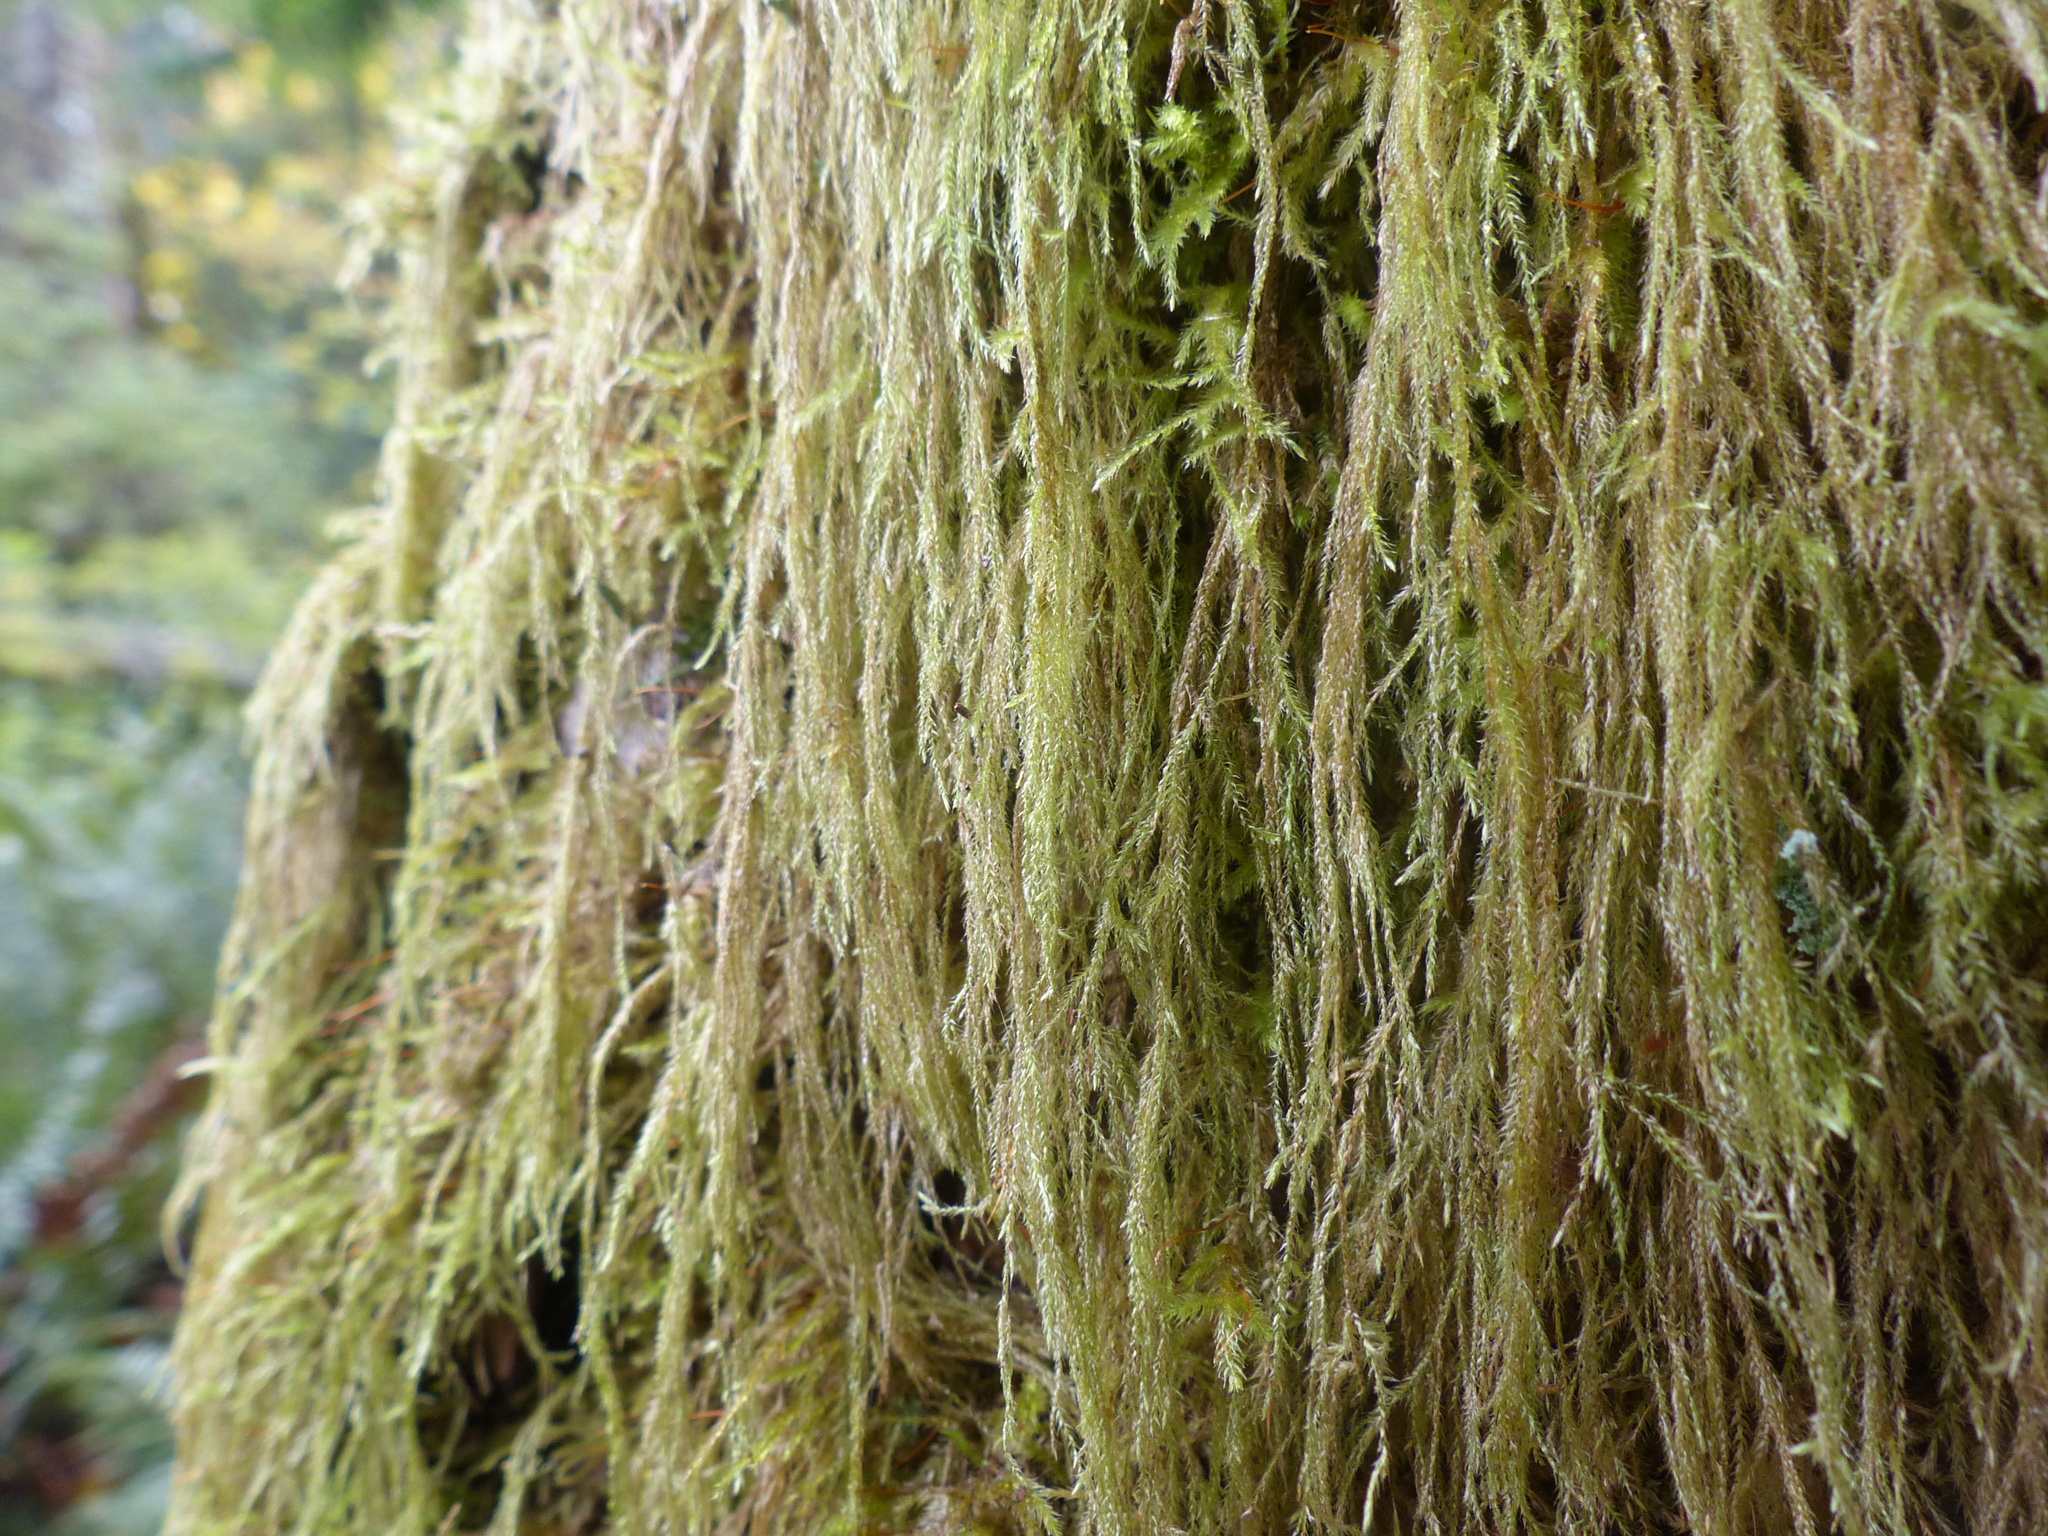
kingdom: Plantae
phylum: Bryophyta
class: Bryopsida
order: Hypnales
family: Lembophyllaceae
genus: Pseudisothecium
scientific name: Pseudisothecium stoloniferum
